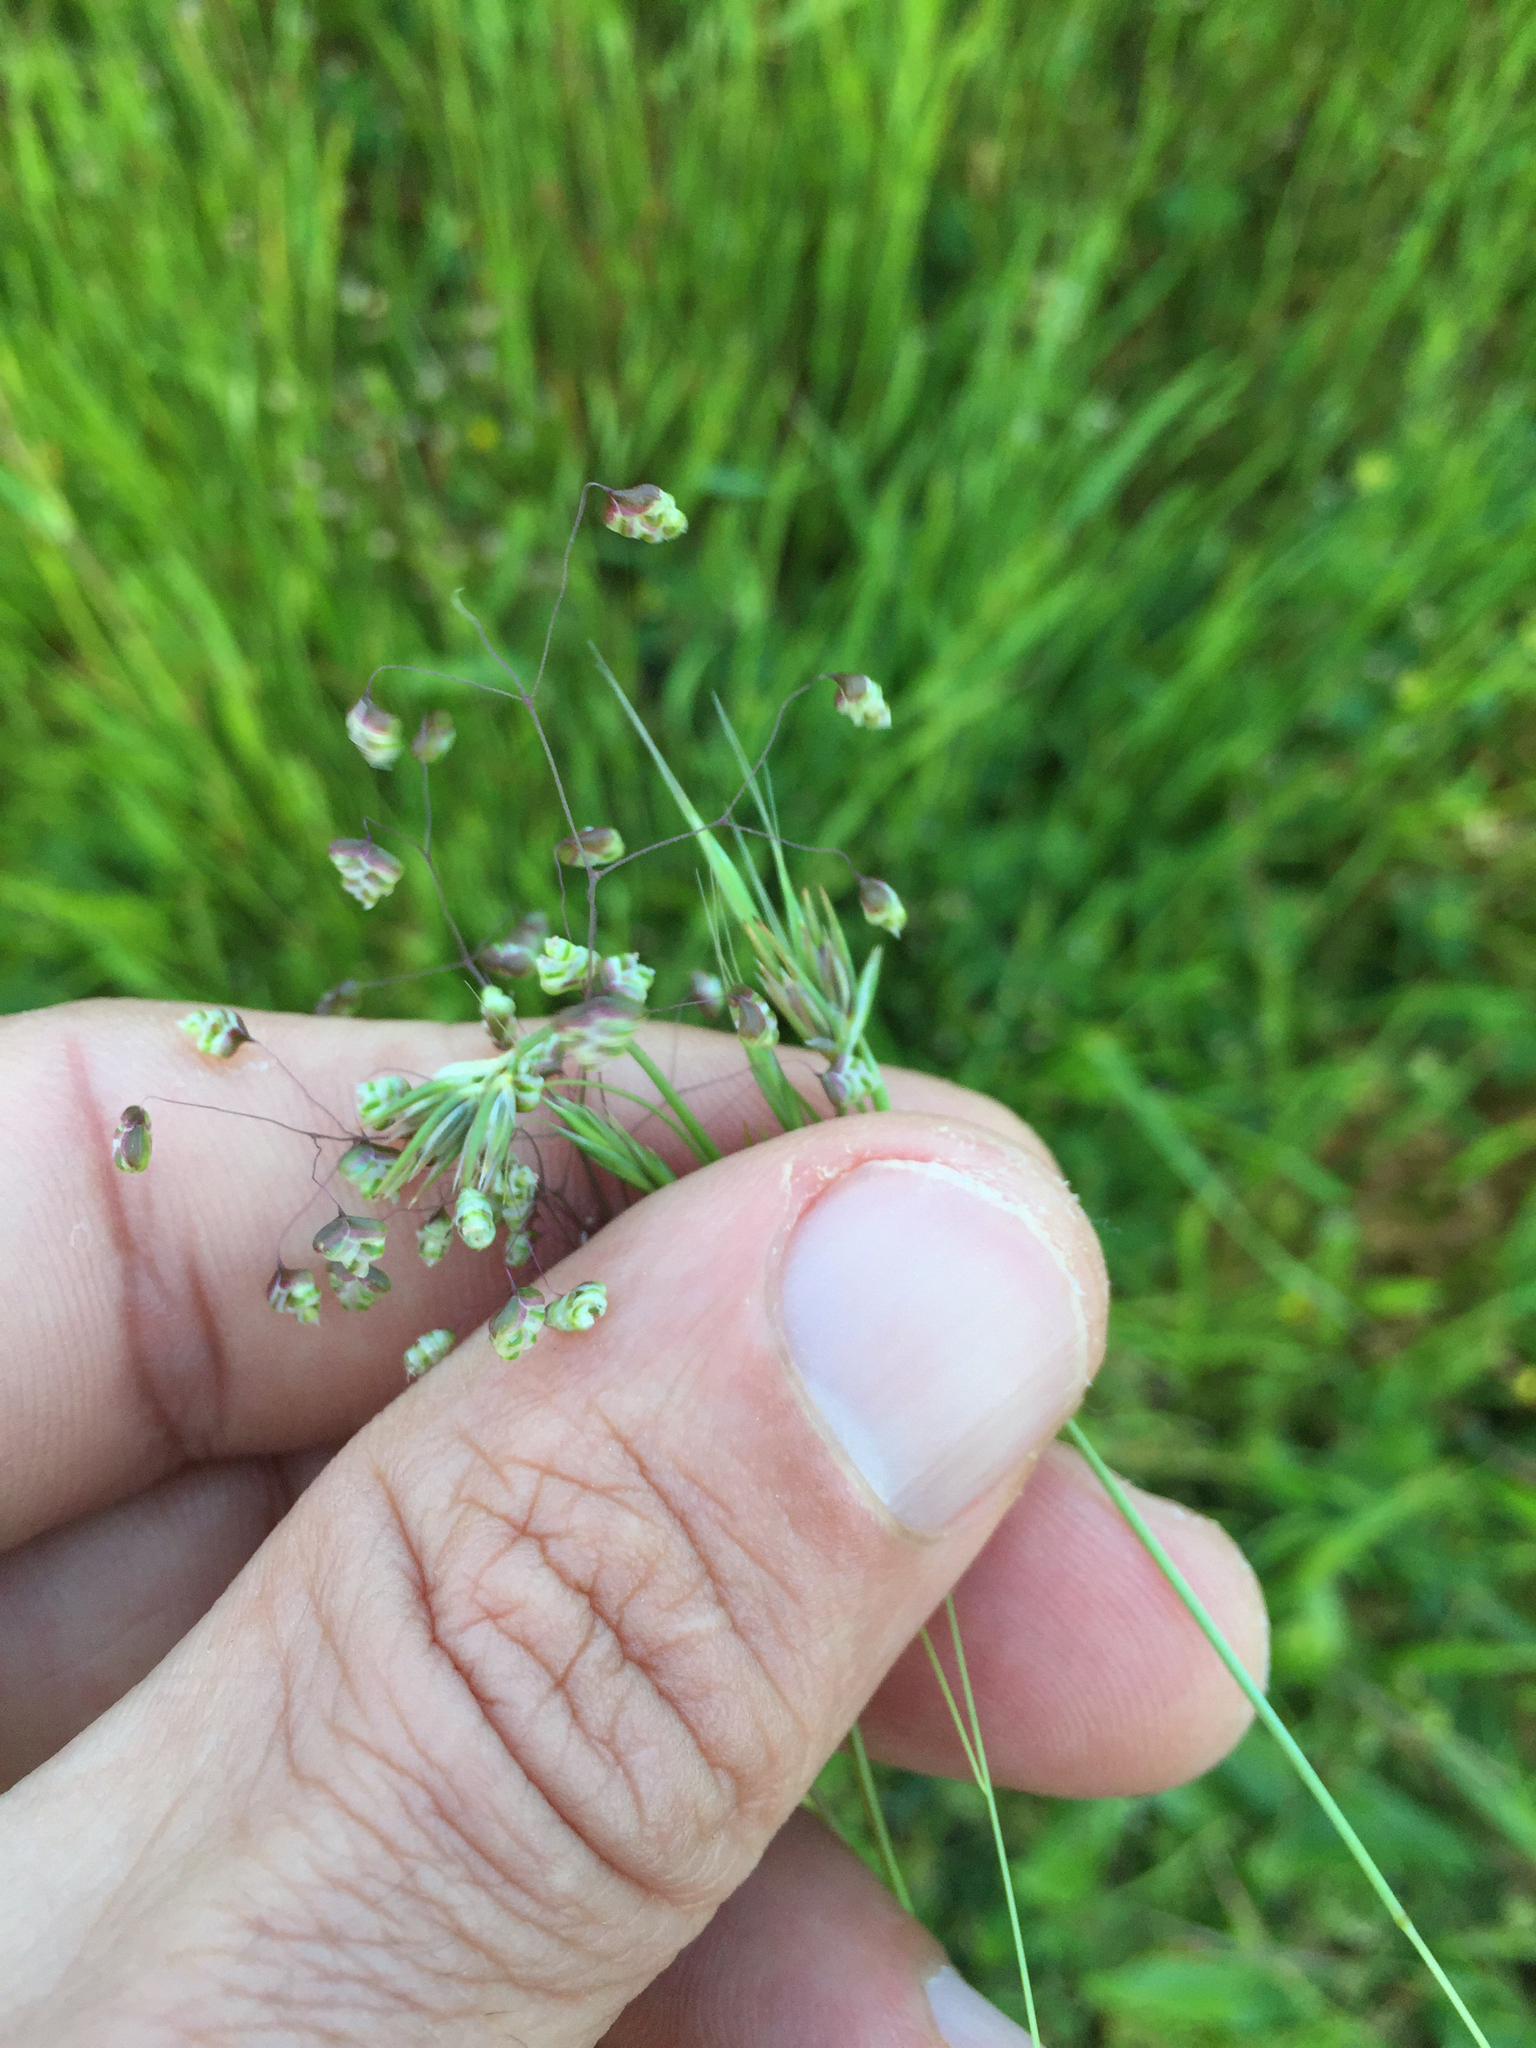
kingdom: Plantae
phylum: Tracheophyta
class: Liliopsida
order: Poales
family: Poaceae
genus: Briza
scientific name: Briza minor
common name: Lesser quaking-grass
